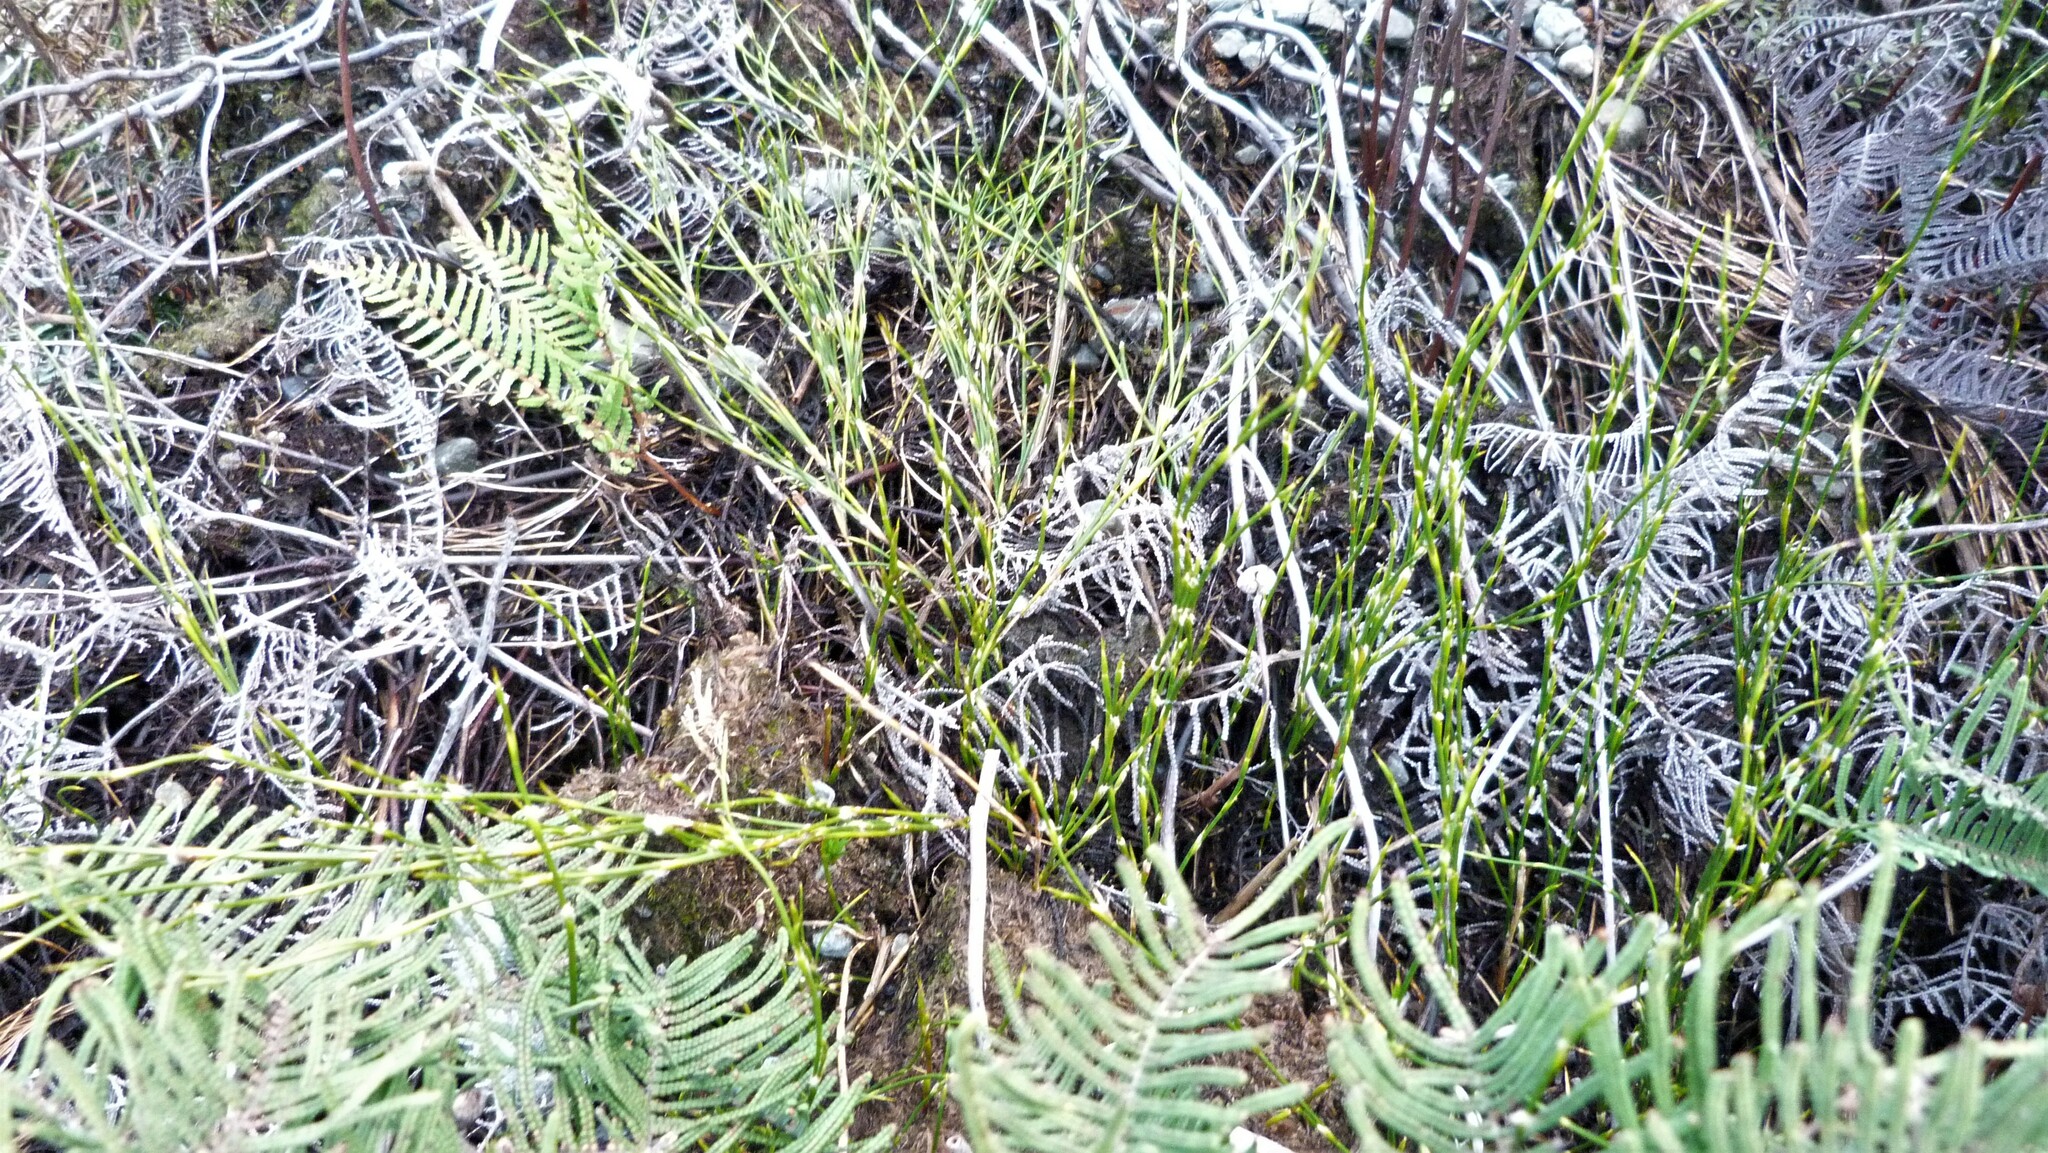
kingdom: Plantae
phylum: Tracheophyta
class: Liliopsida
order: Poales
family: Restionaceae
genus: Empodisma
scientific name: Empodisma minus
